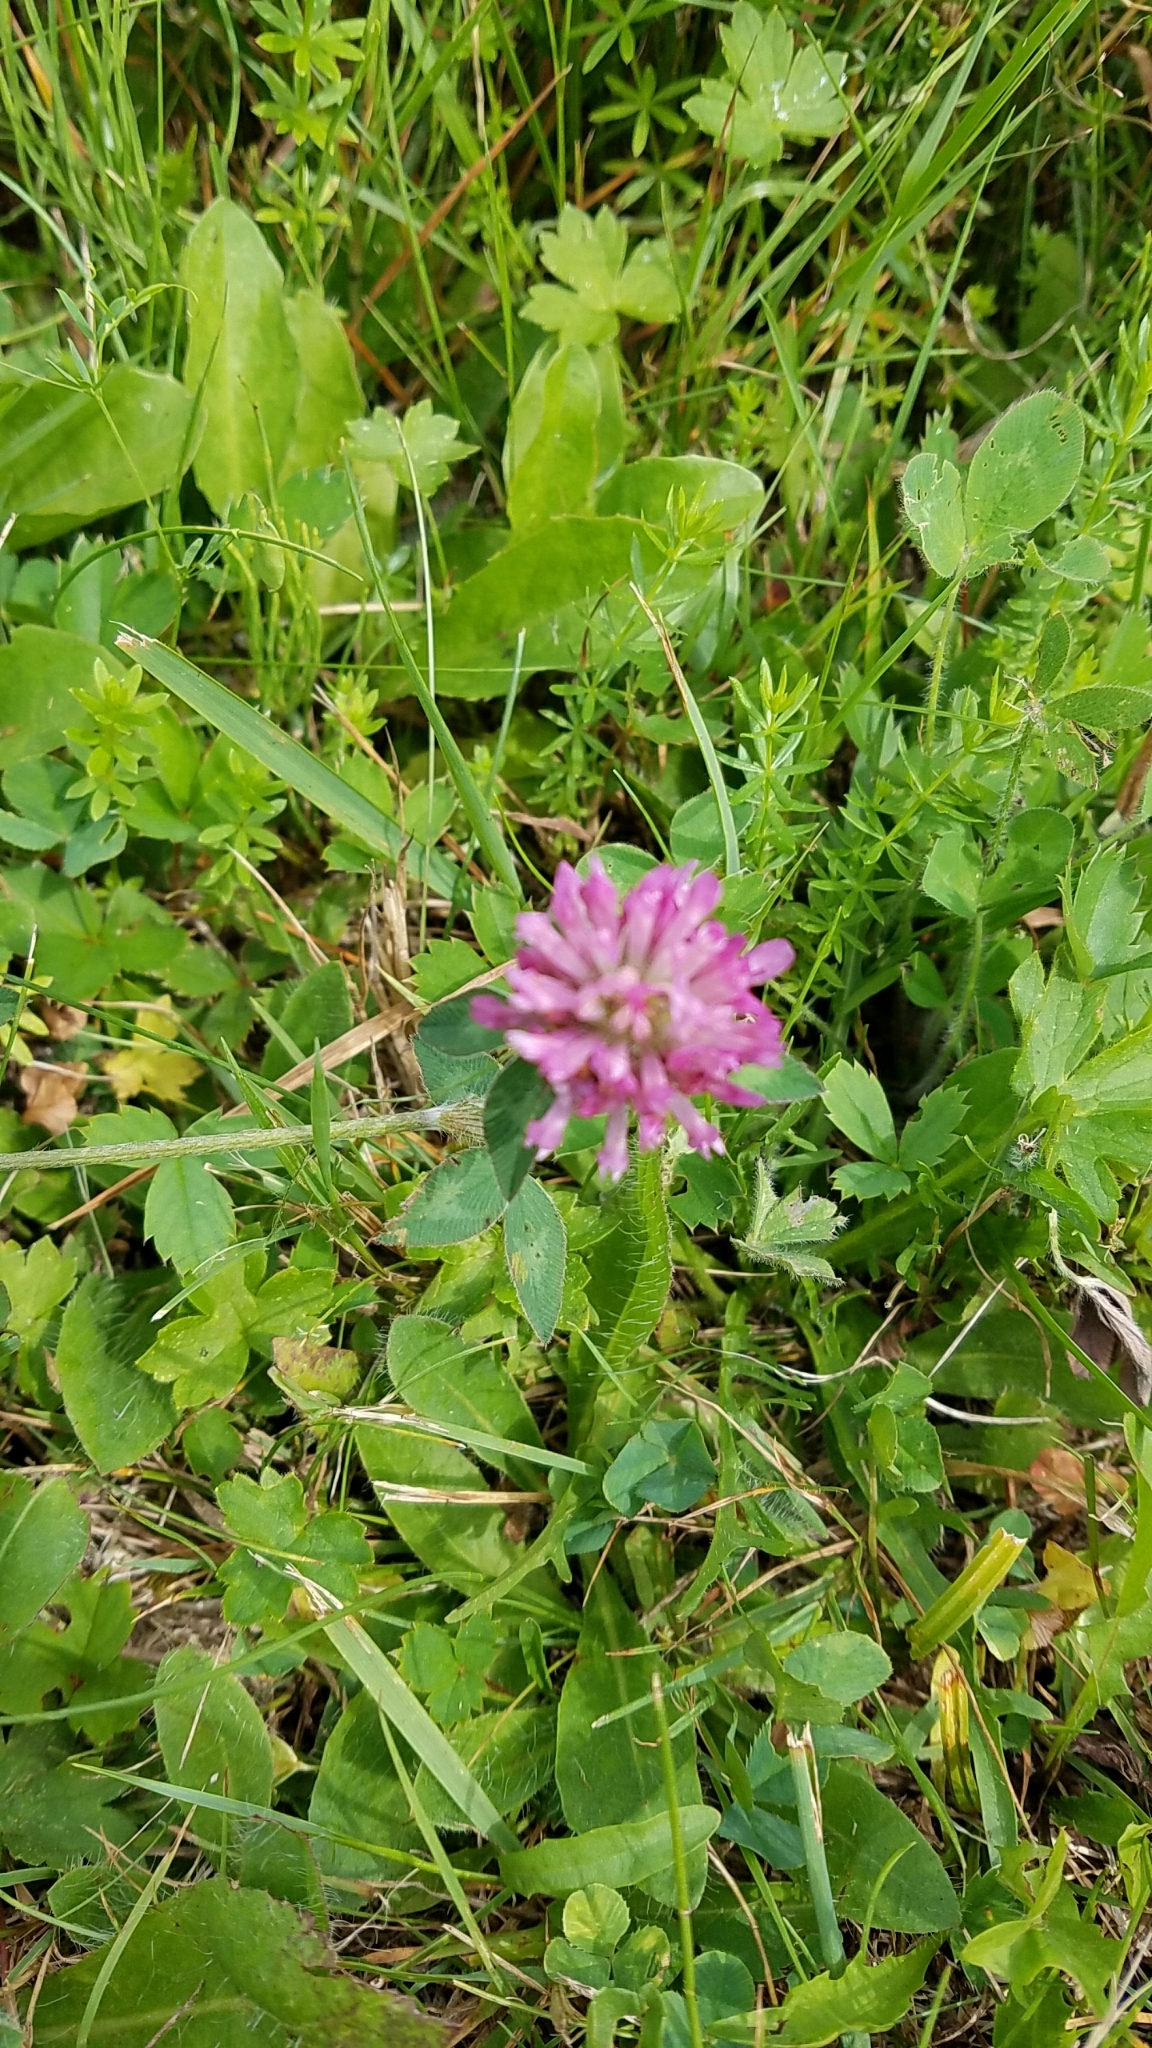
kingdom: Plantae
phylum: Tracheophyta
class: Magnoliopsida
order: Fabales
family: Fabaceae
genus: Trifolium
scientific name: Trifolium pratense
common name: Red clover
